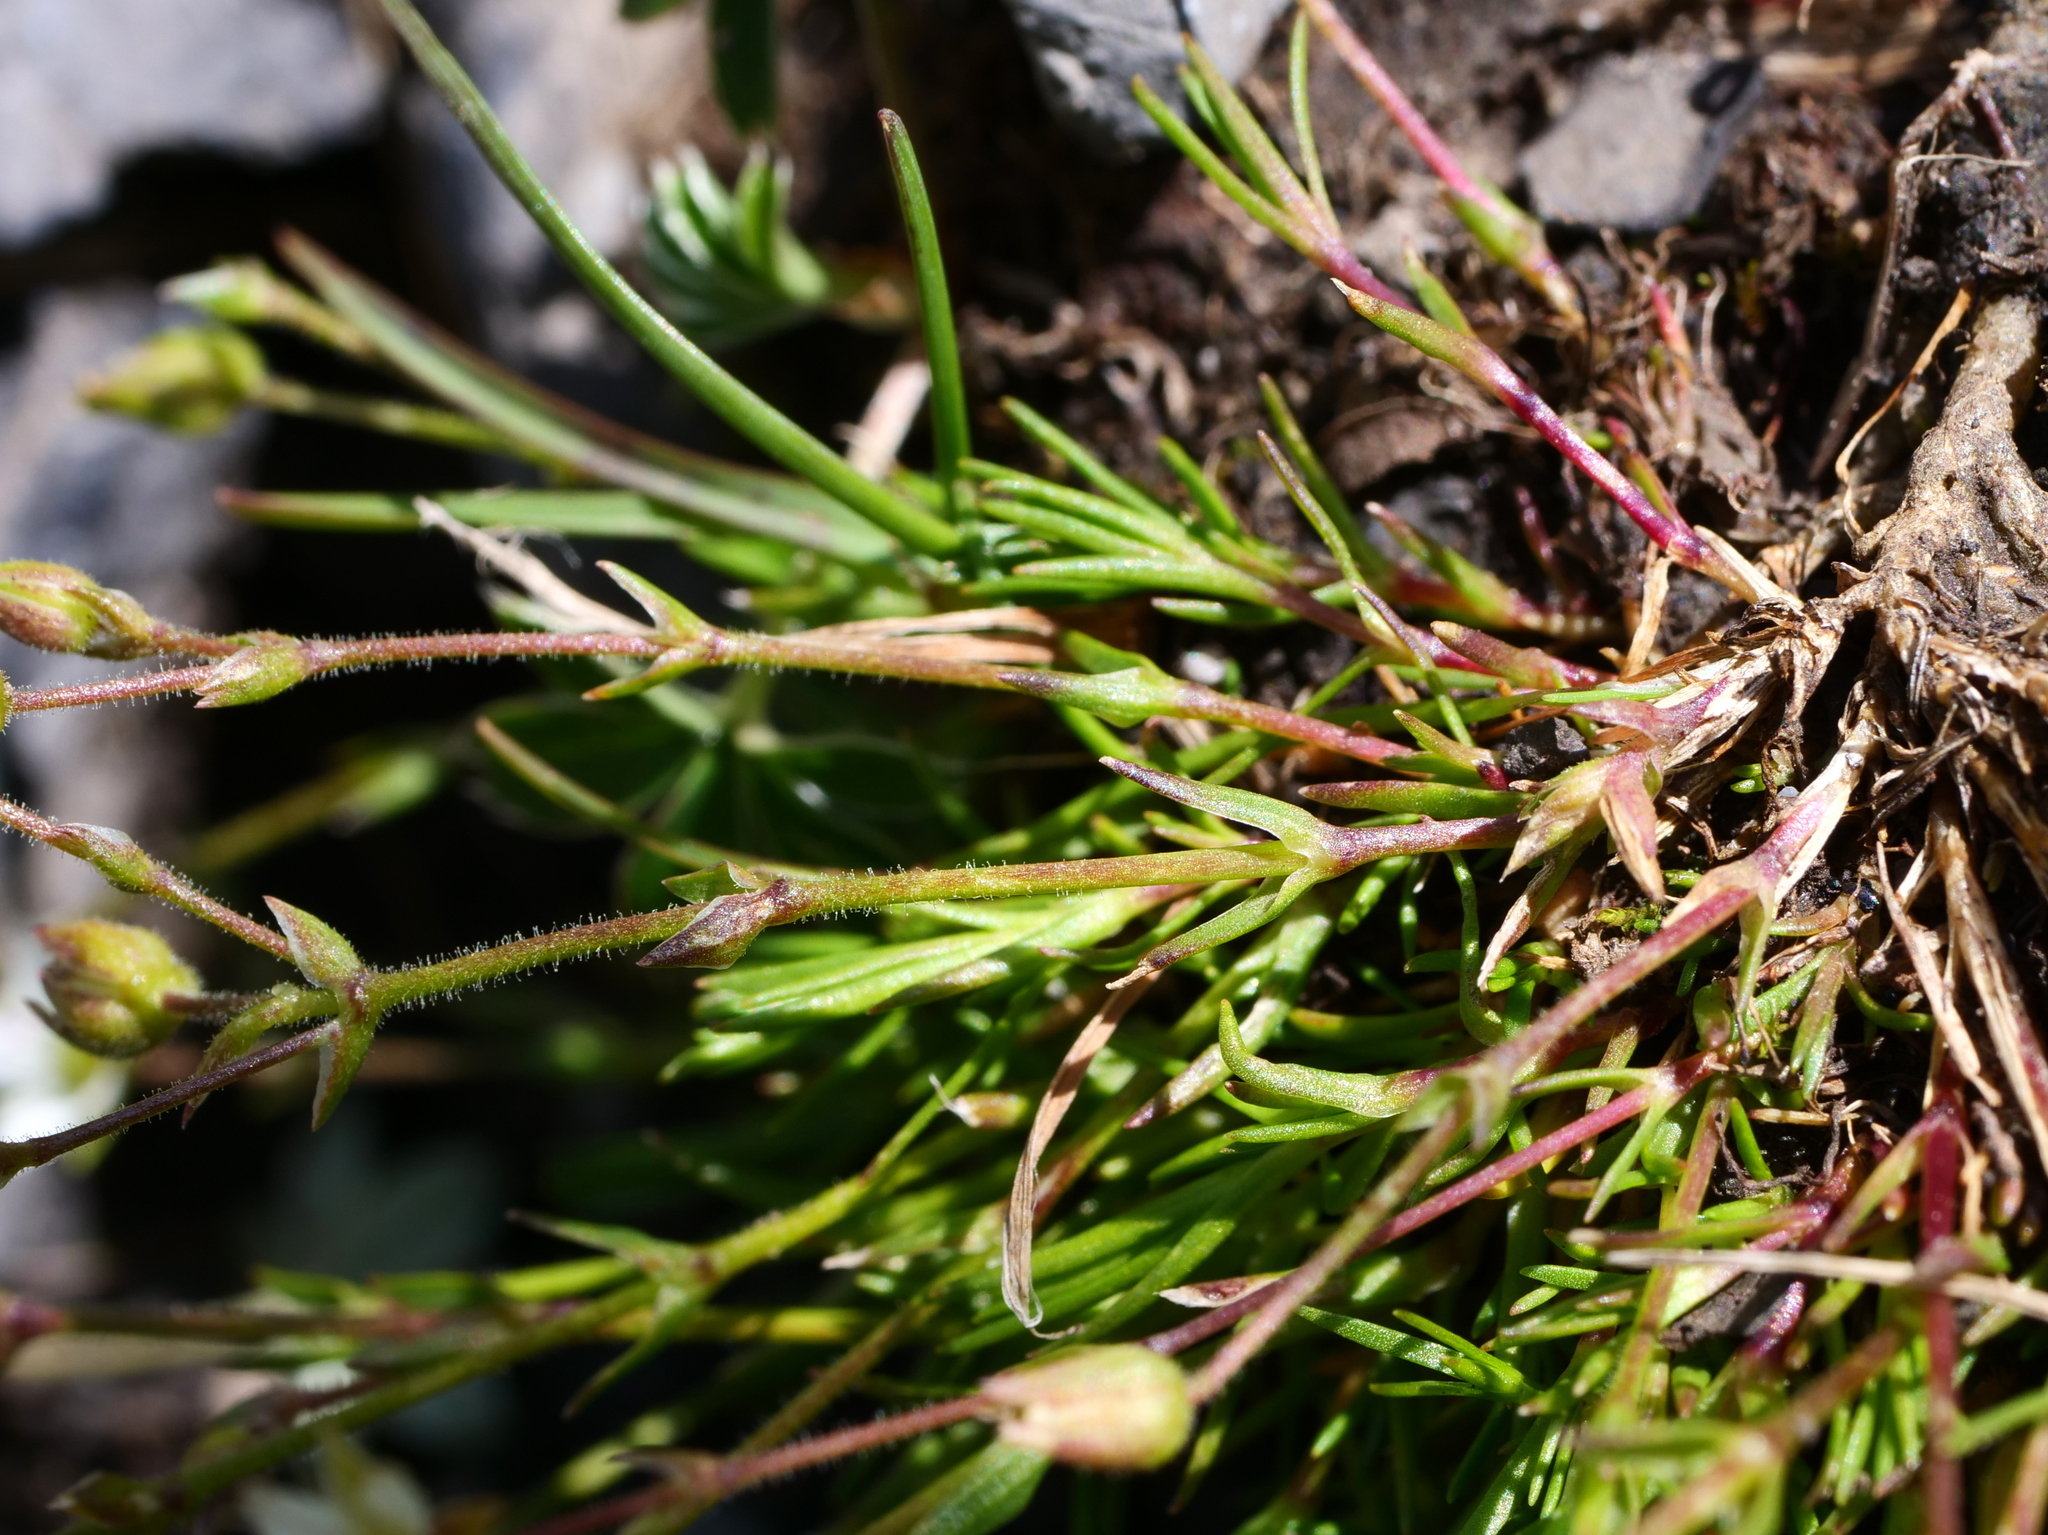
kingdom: Plantae
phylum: Tracheophyta
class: Magnoliopsida
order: Caryophyllales
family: Caryophyllaceae
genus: Sabulina
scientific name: Sabulina verna
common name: Spring sandwort
